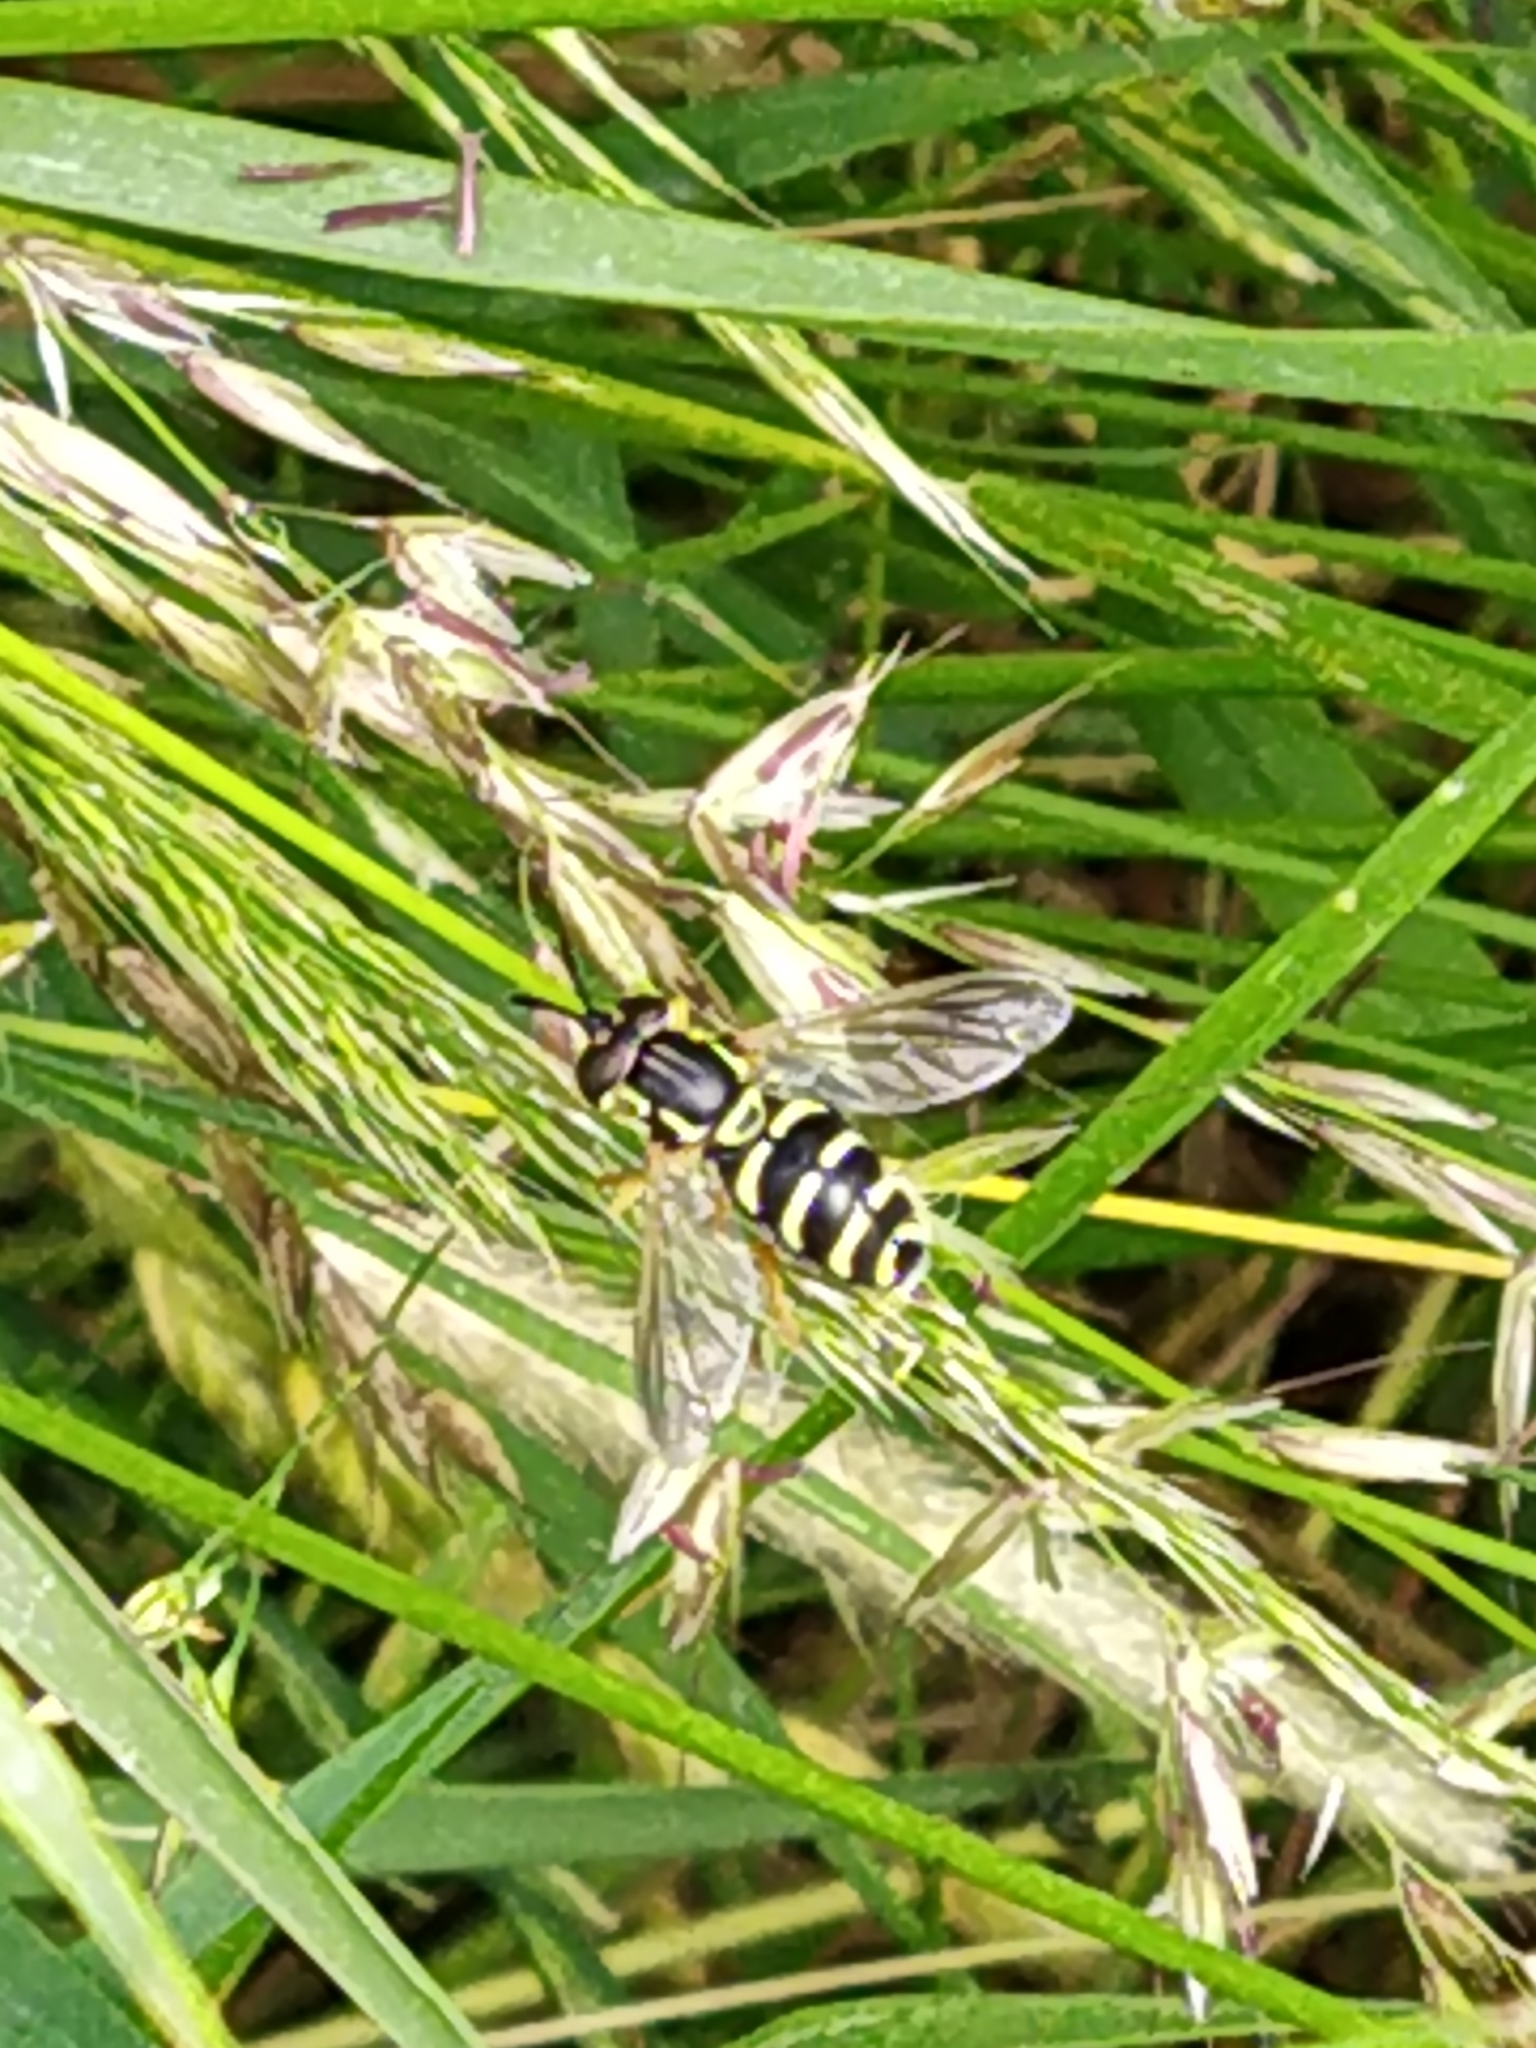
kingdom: Animalia
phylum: Arthropoda
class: Insecta
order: Diptera
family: Syrphidae
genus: Chrysotoxum
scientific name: Chrysotoxum festivum
